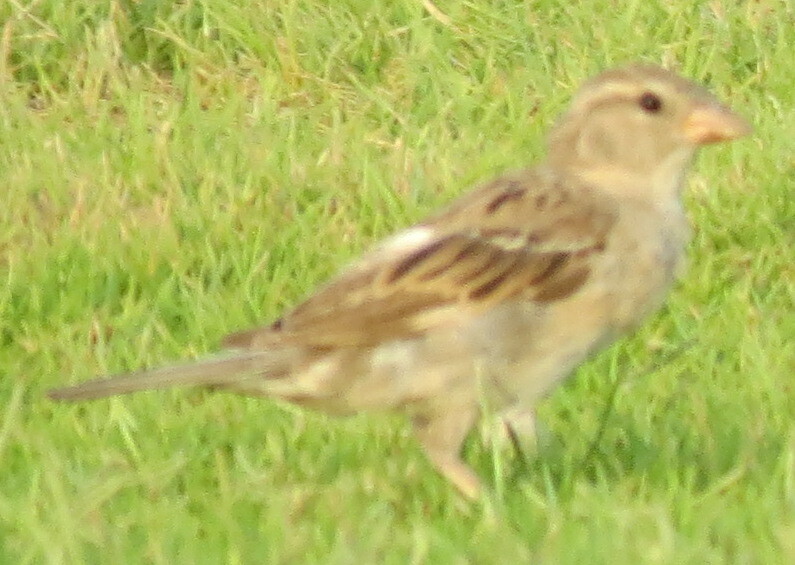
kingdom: Animalia
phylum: Chordata
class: Aves
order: Passeriformes
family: Passeridae
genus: Passer
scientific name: Passer domesticus
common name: House sparrow
